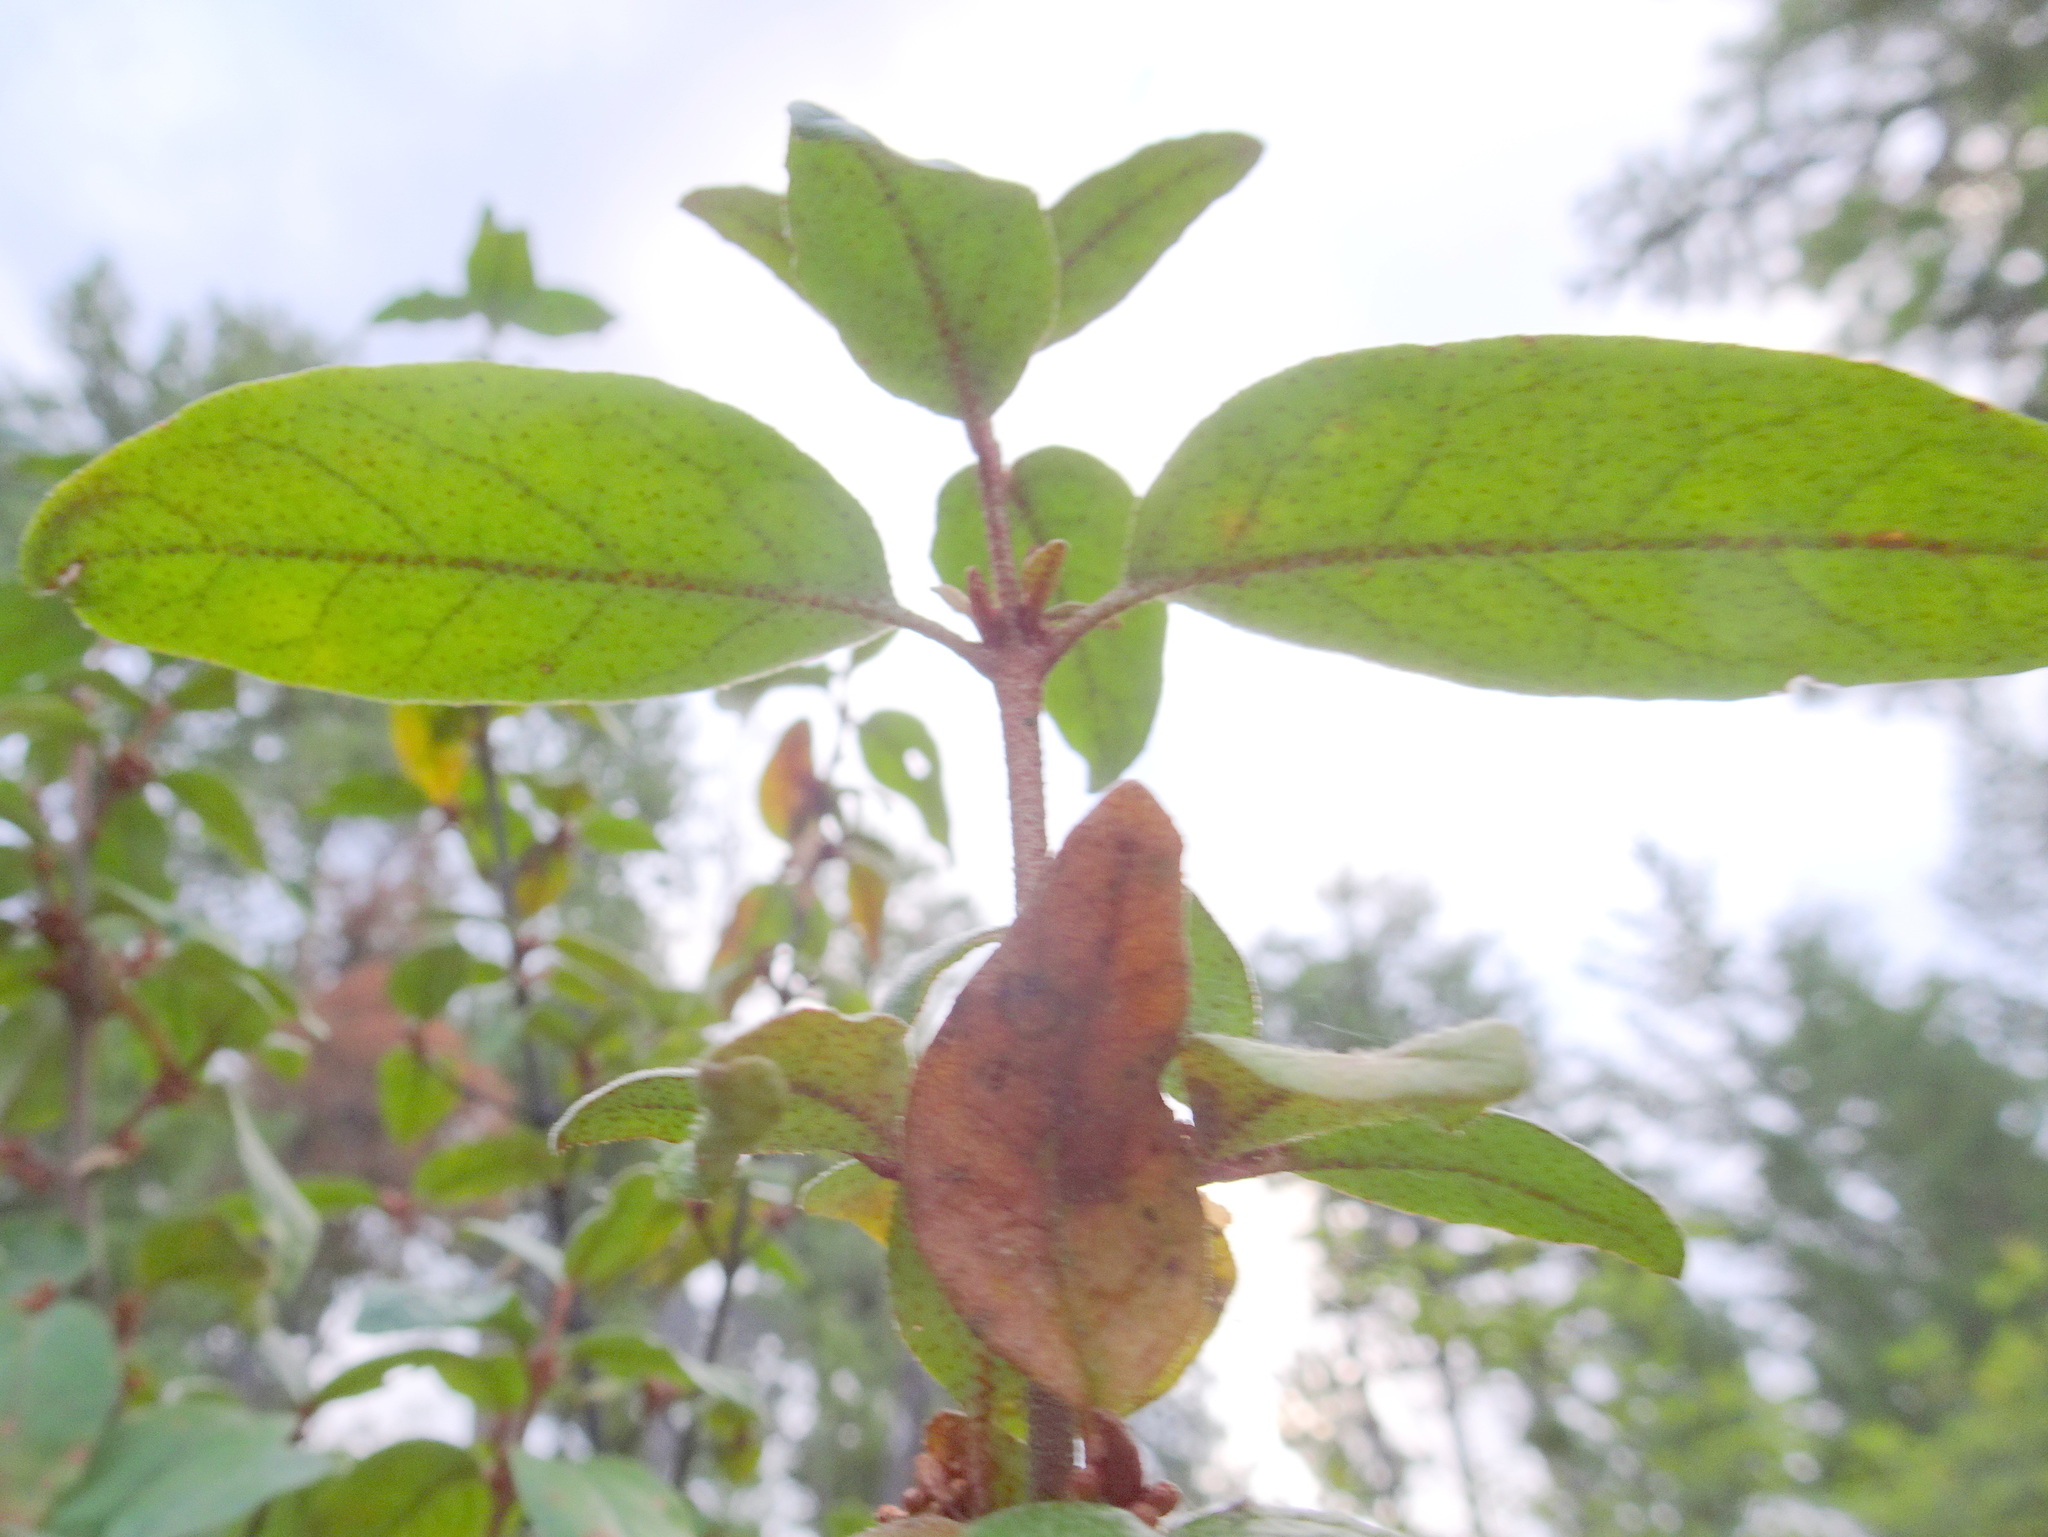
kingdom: Plantae
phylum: Tracheophyta
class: Magnoliopsida
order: Rosales
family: Elaeagnaceae
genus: Shepherdia
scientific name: Shepherdia canadensis
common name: Soapberry
